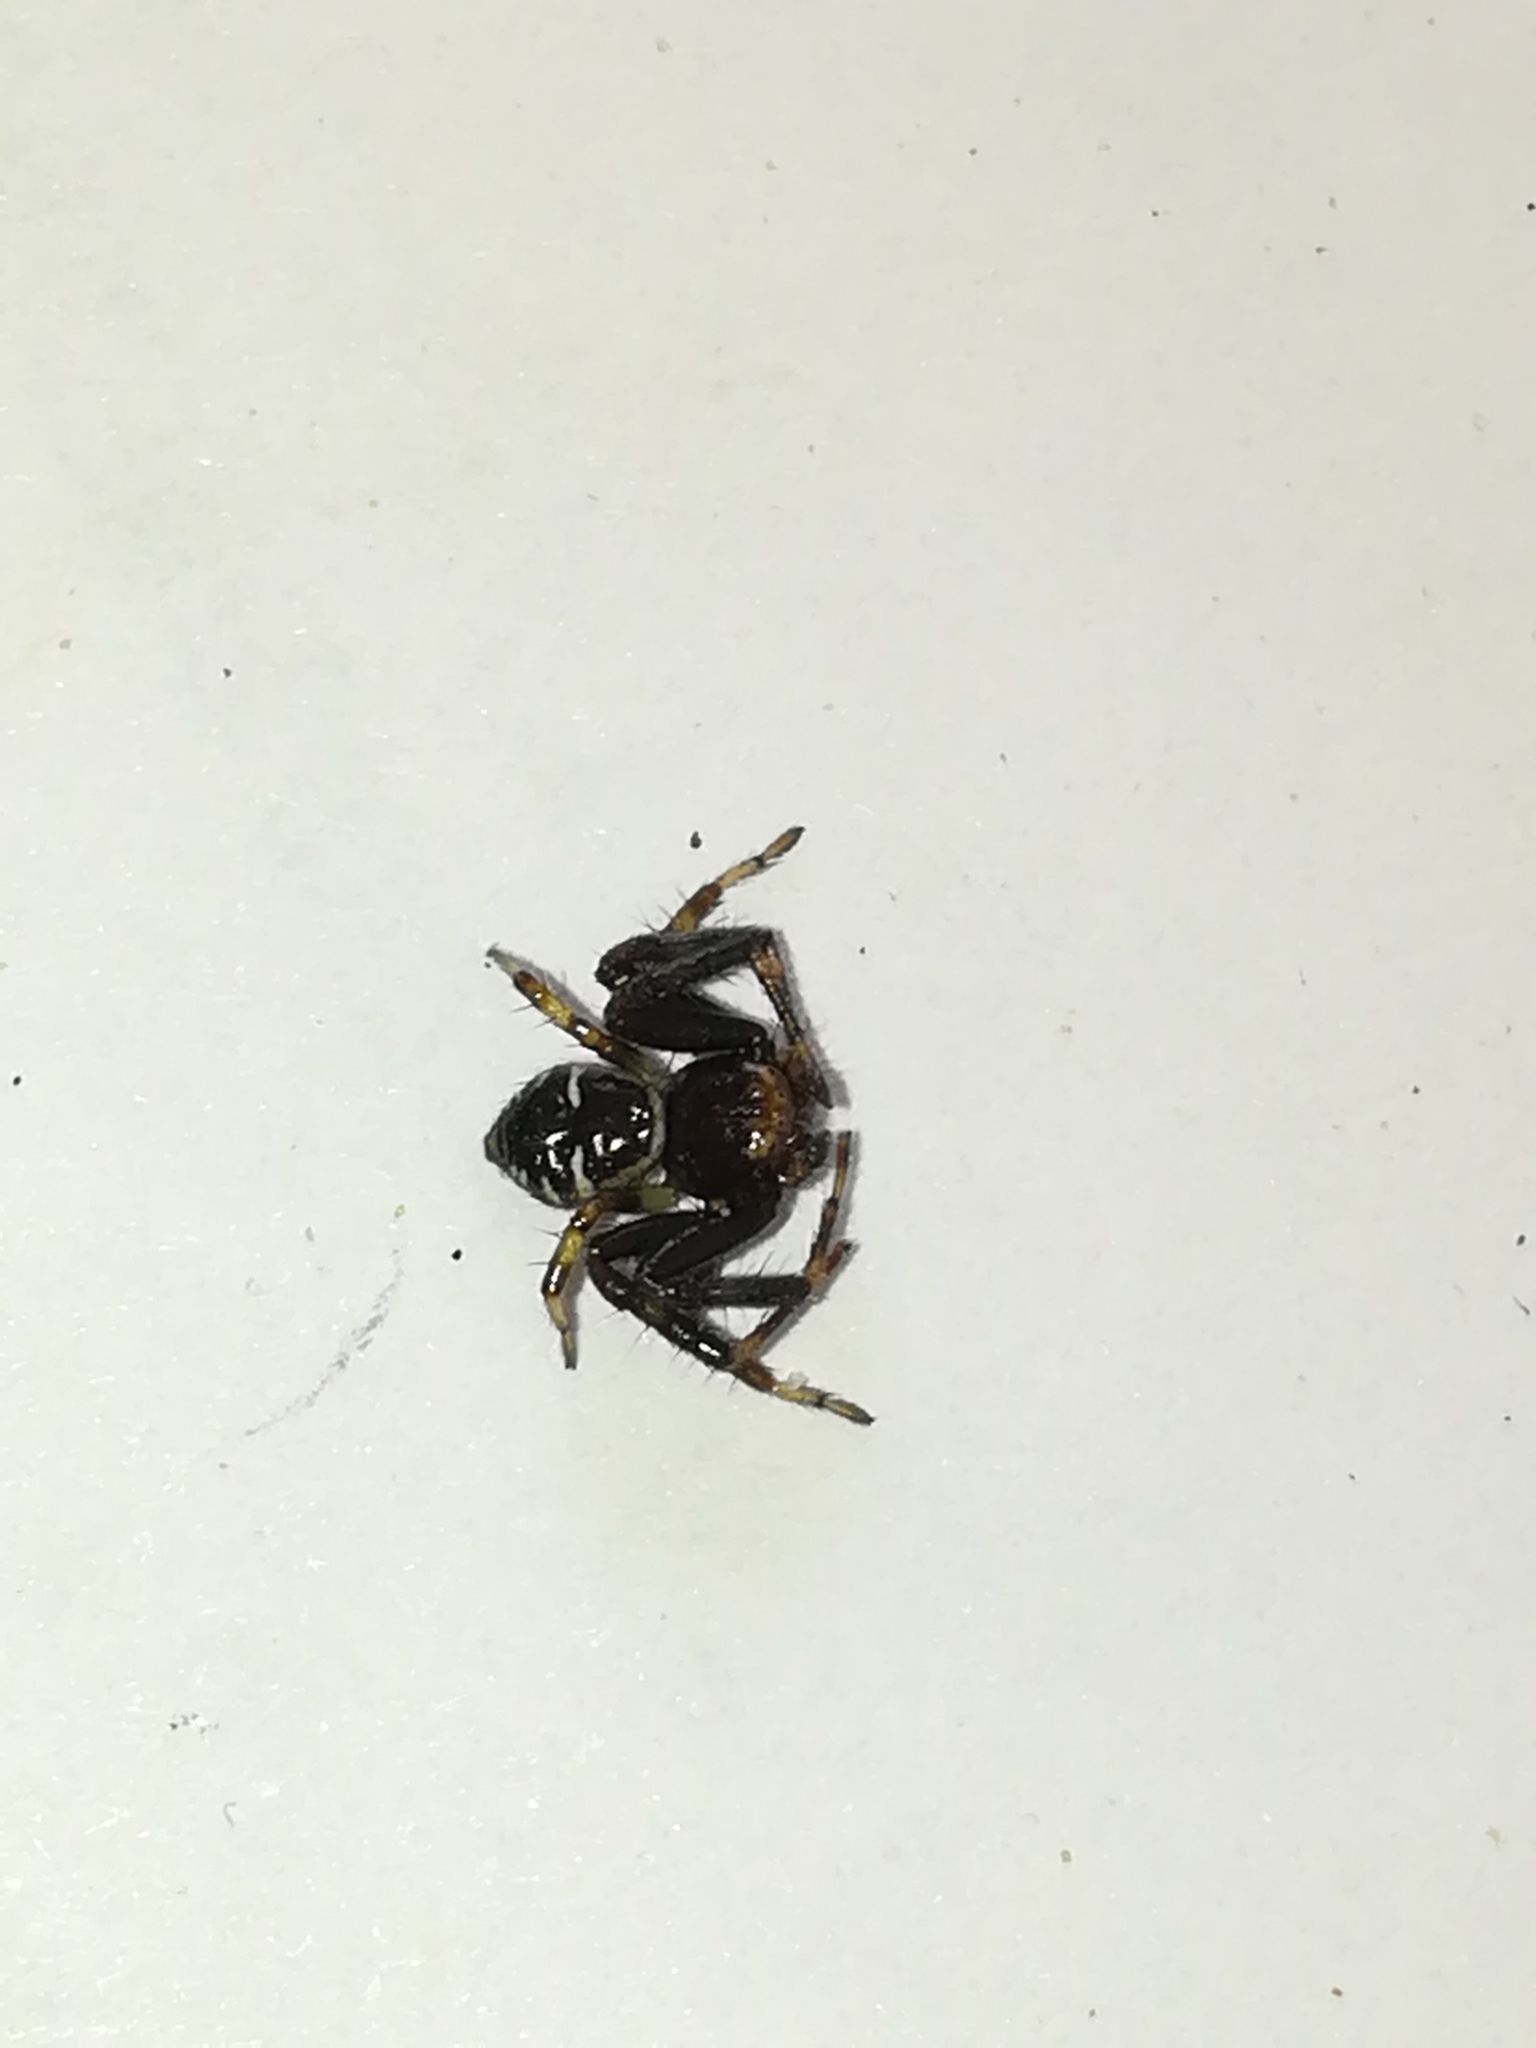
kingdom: Animalia
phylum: Arthropoda
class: Arachnida
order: Araneae
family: Thomisidae
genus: Synema
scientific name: Synema globosum
